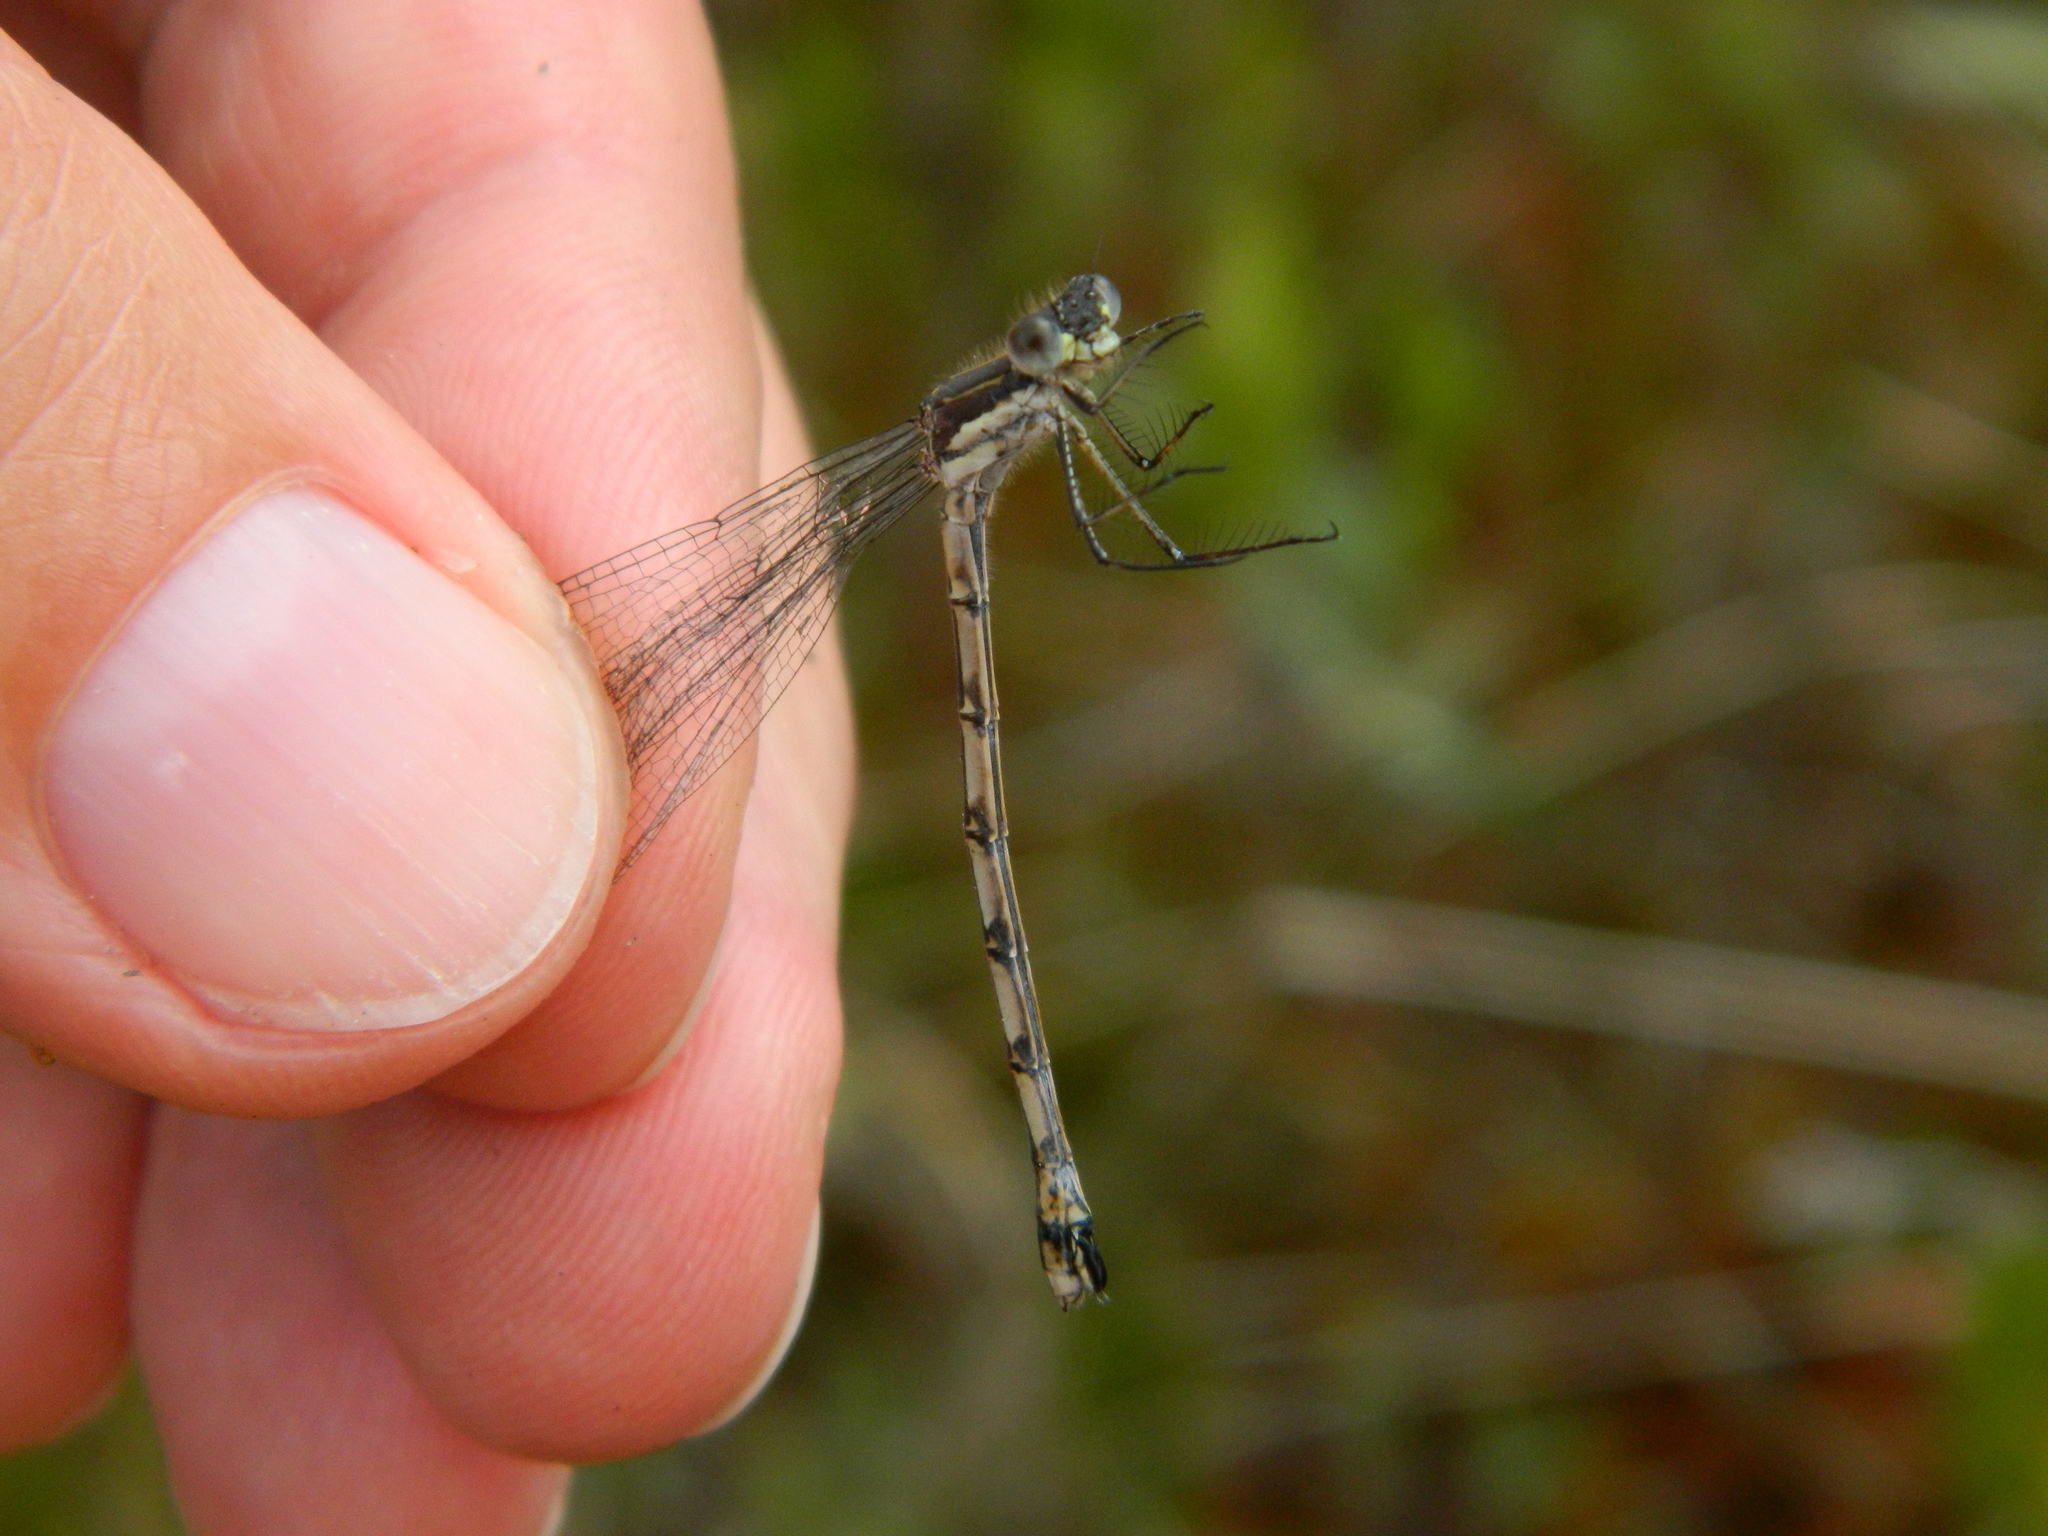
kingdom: Animalia
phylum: Arthropoda
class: Insecta
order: Odonata
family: Lestidae
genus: Lestes
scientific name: Lestes disjunctus
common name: Northern spreadwing
